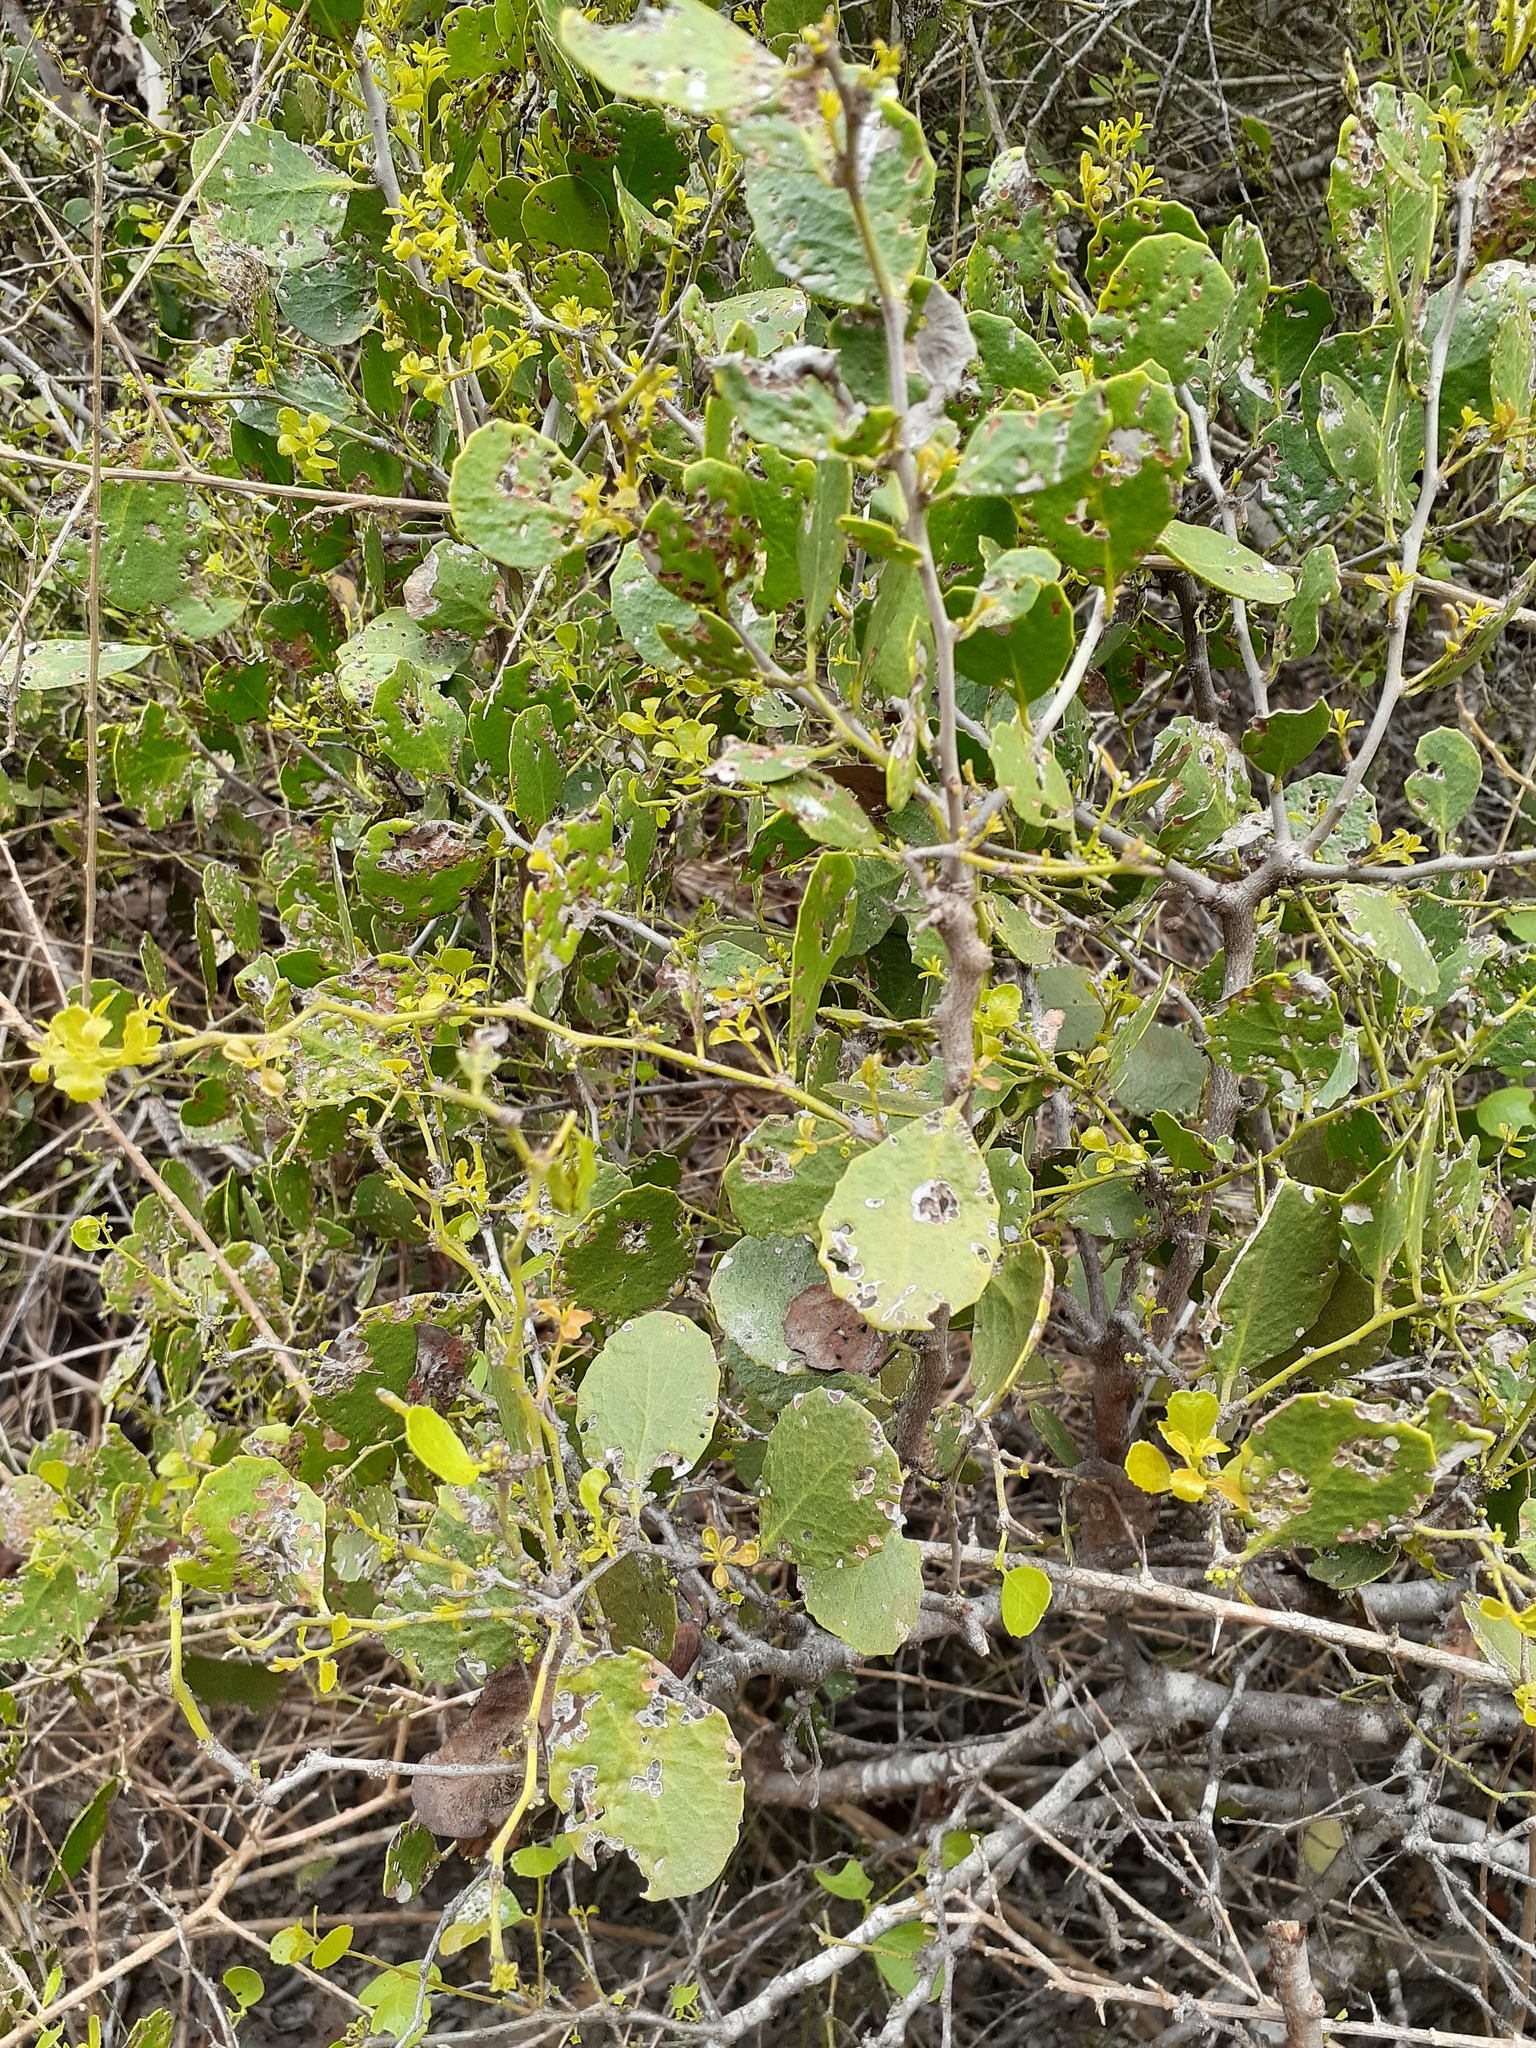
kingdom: Plantae
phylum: Tracheophyta
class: Magnoliopsida
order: Celastrales
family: Celastraceae
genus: Tricerma
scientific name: Tricerma octogonum
